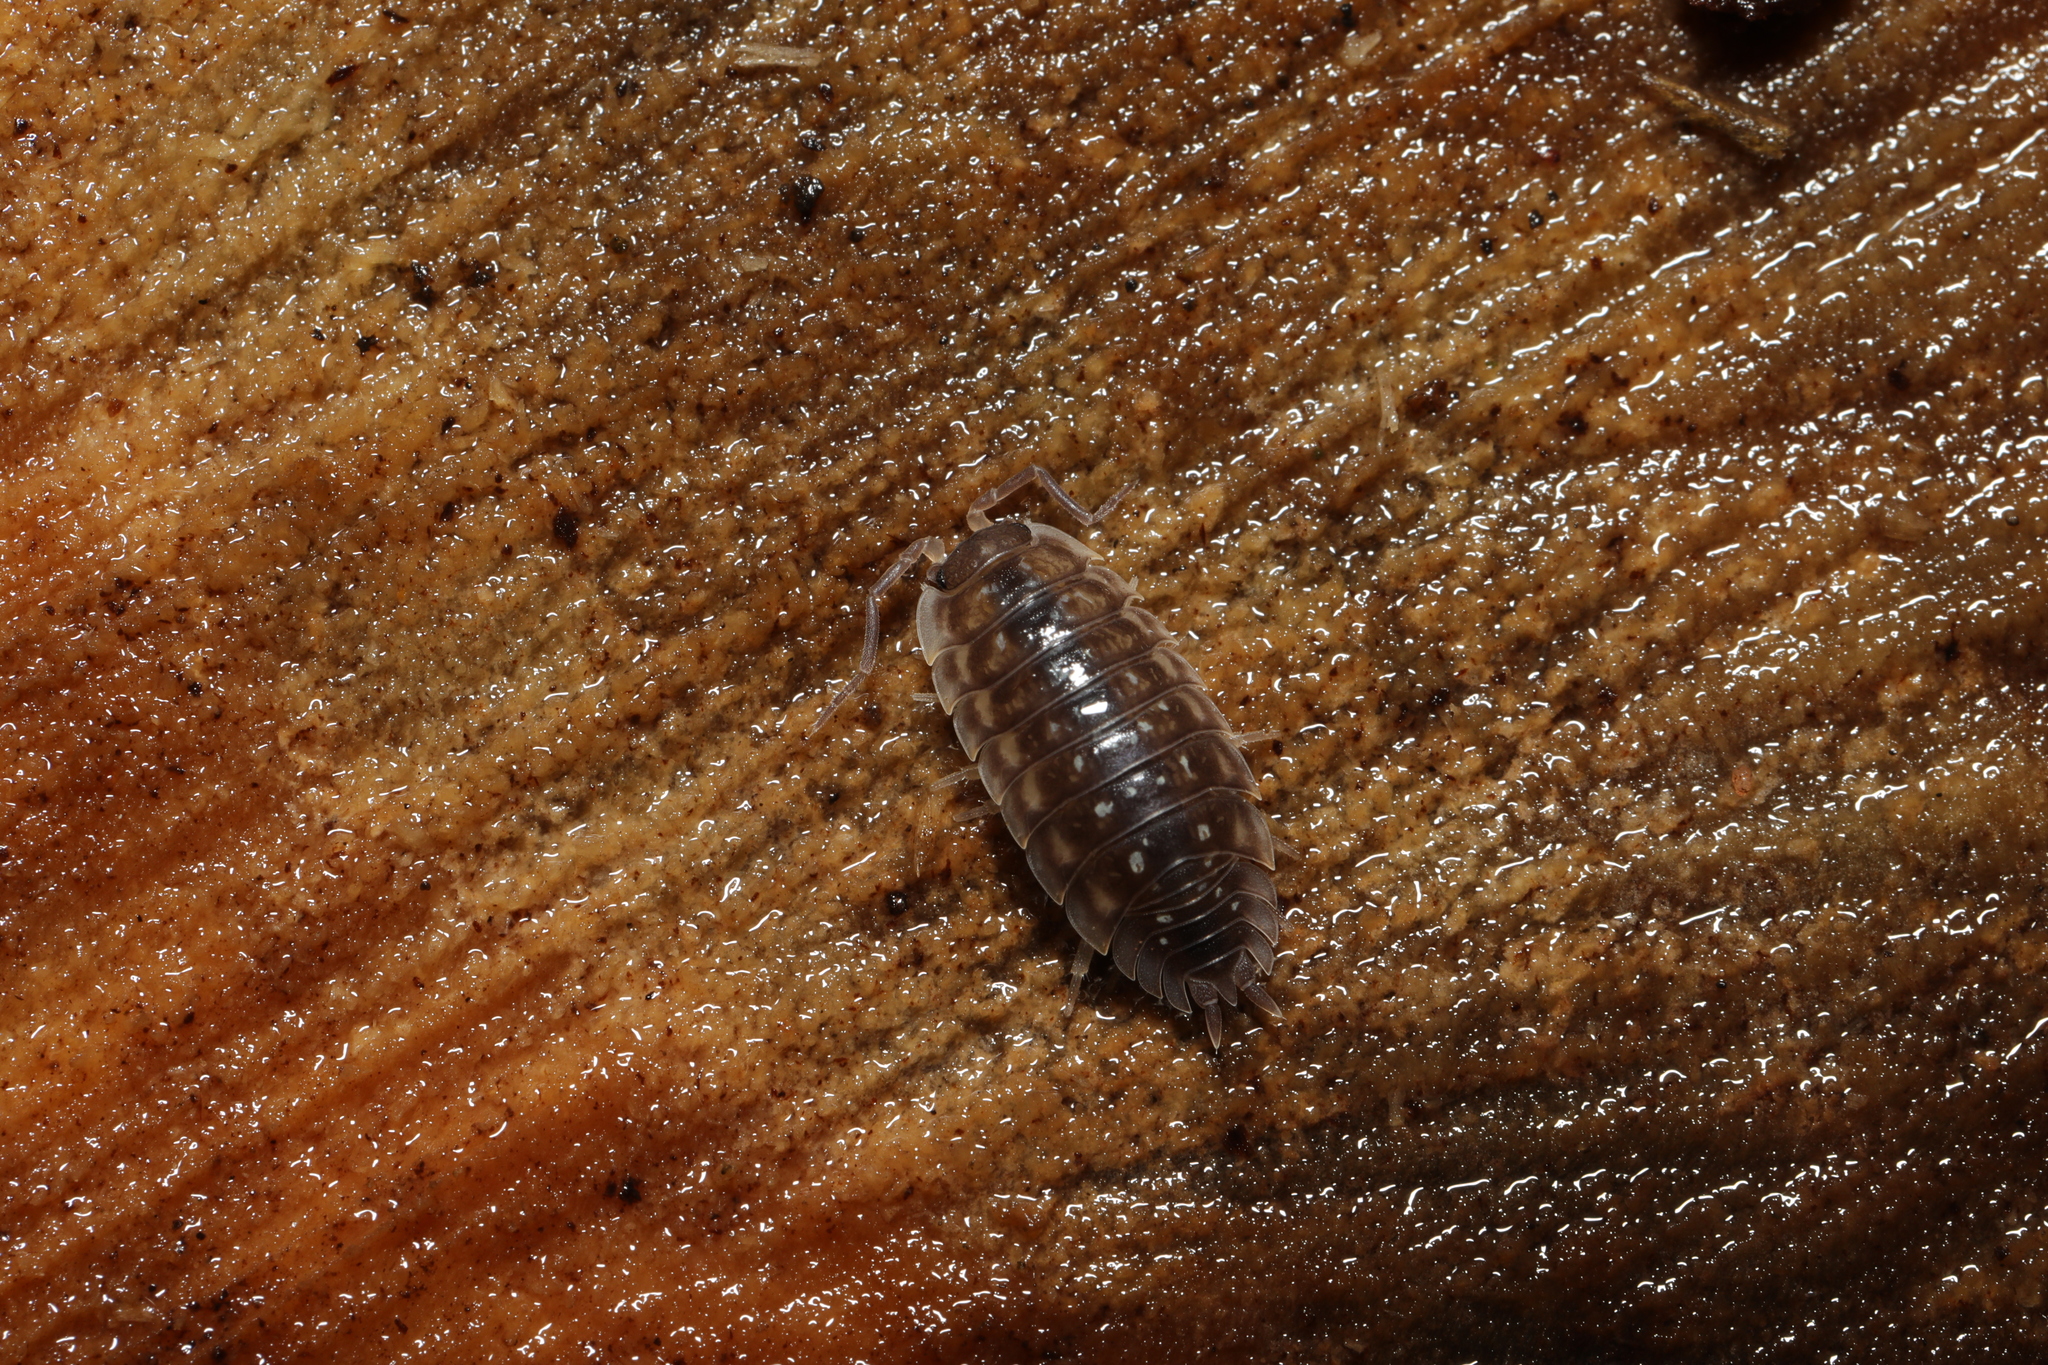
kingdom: Animalia
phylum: Arthropoda
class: Malacostraca
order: Isopoda
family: Oniscidae
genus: Oniscus
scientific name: Oniscus asellus
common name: Common shiny woodlouse
